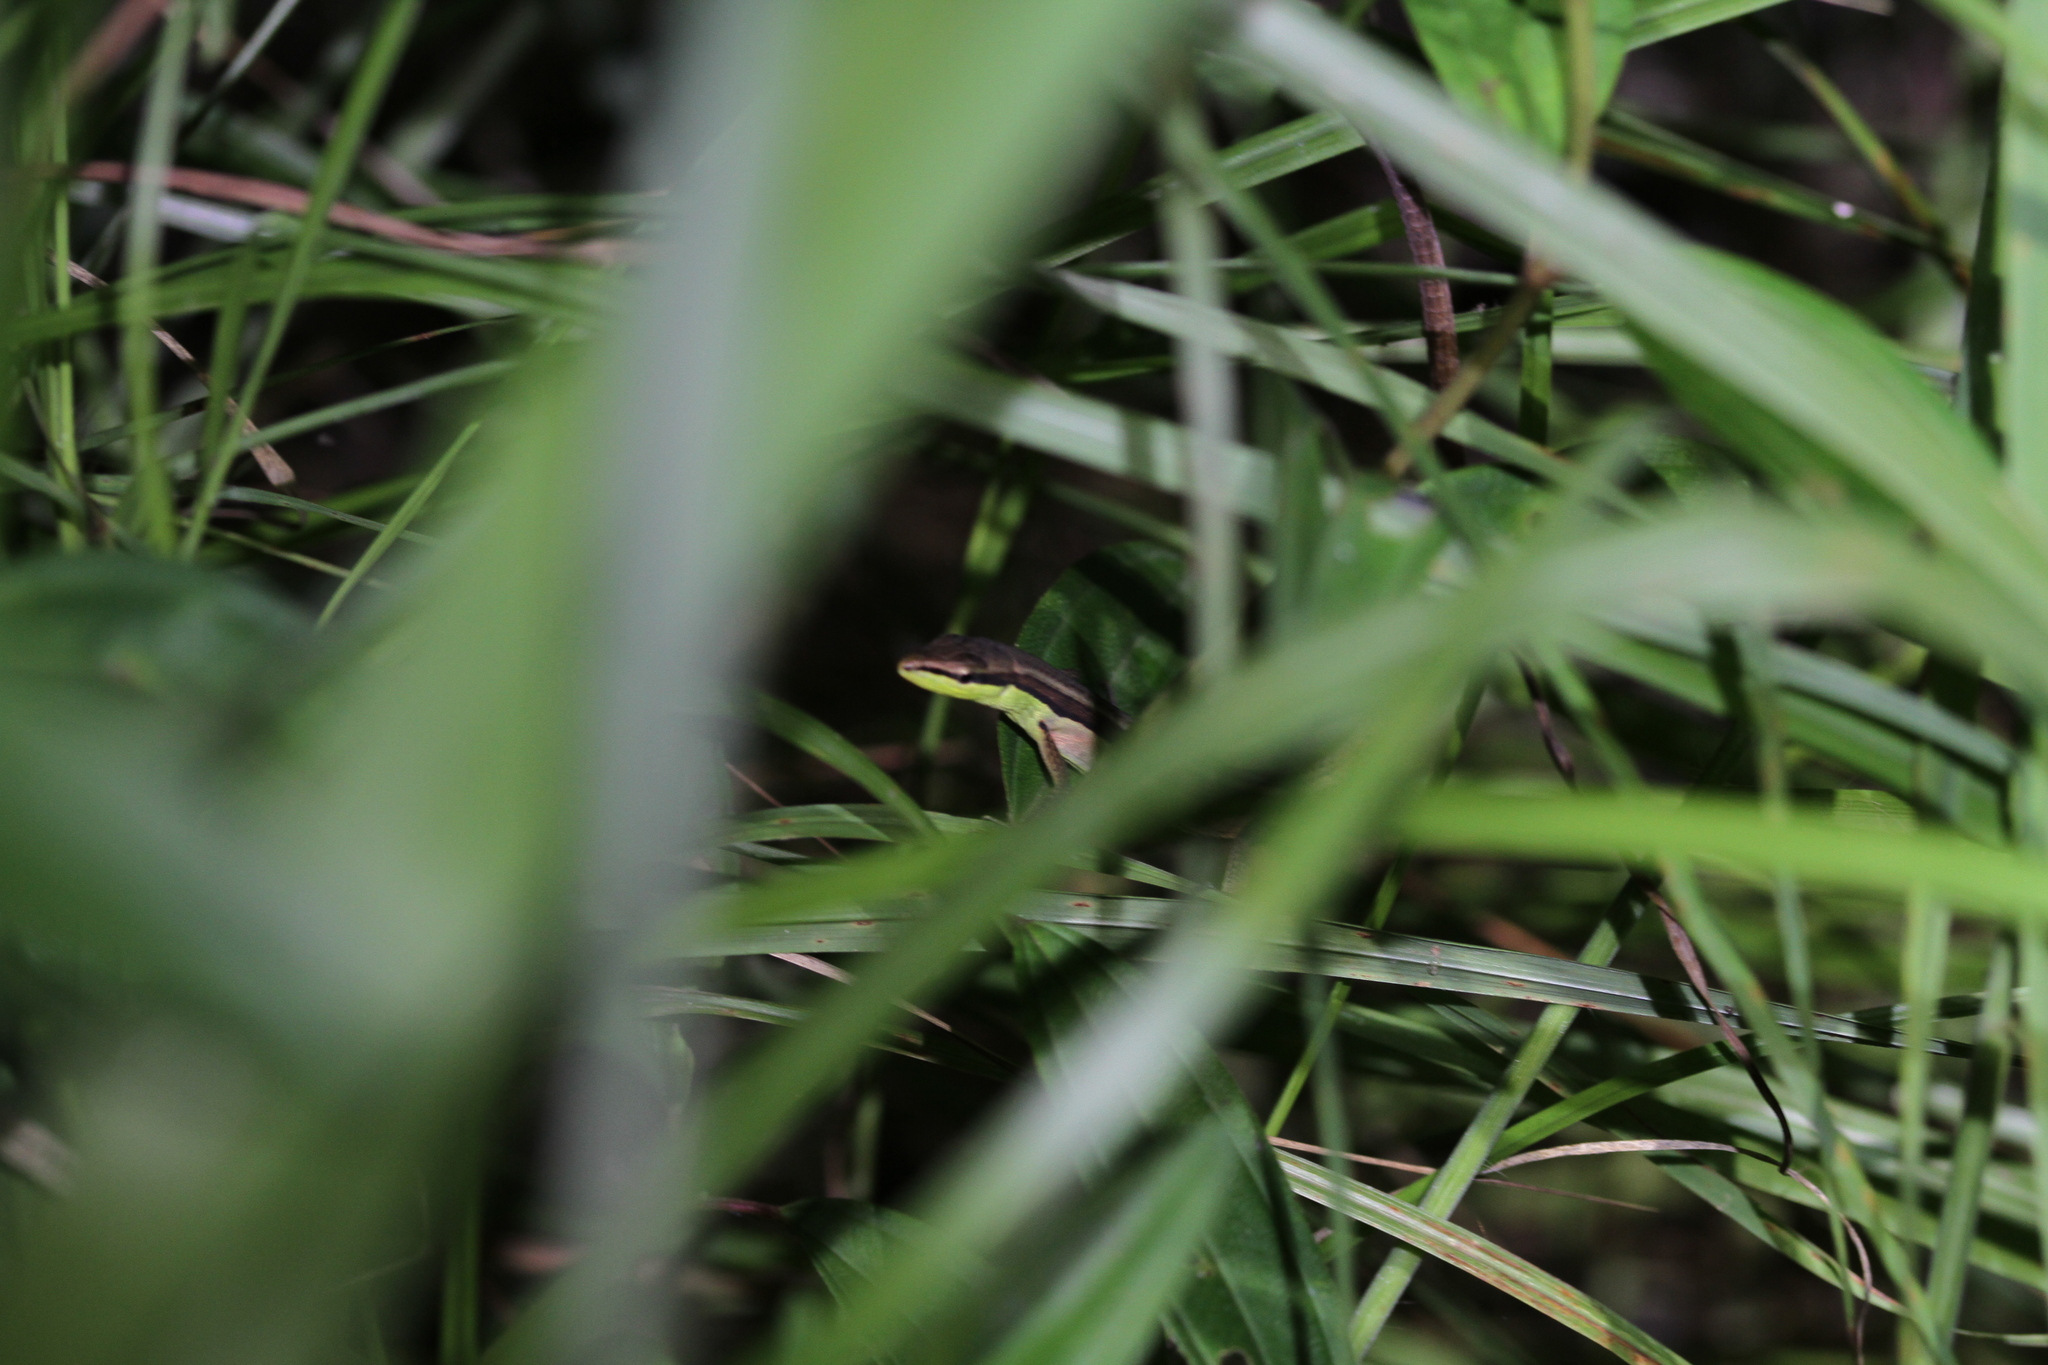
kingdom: Animalia
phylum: Chordata
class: Squamata
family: Lacertidae
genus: Takydromus
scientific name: Takydromus sexlineatus
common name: Asian grass lizard
